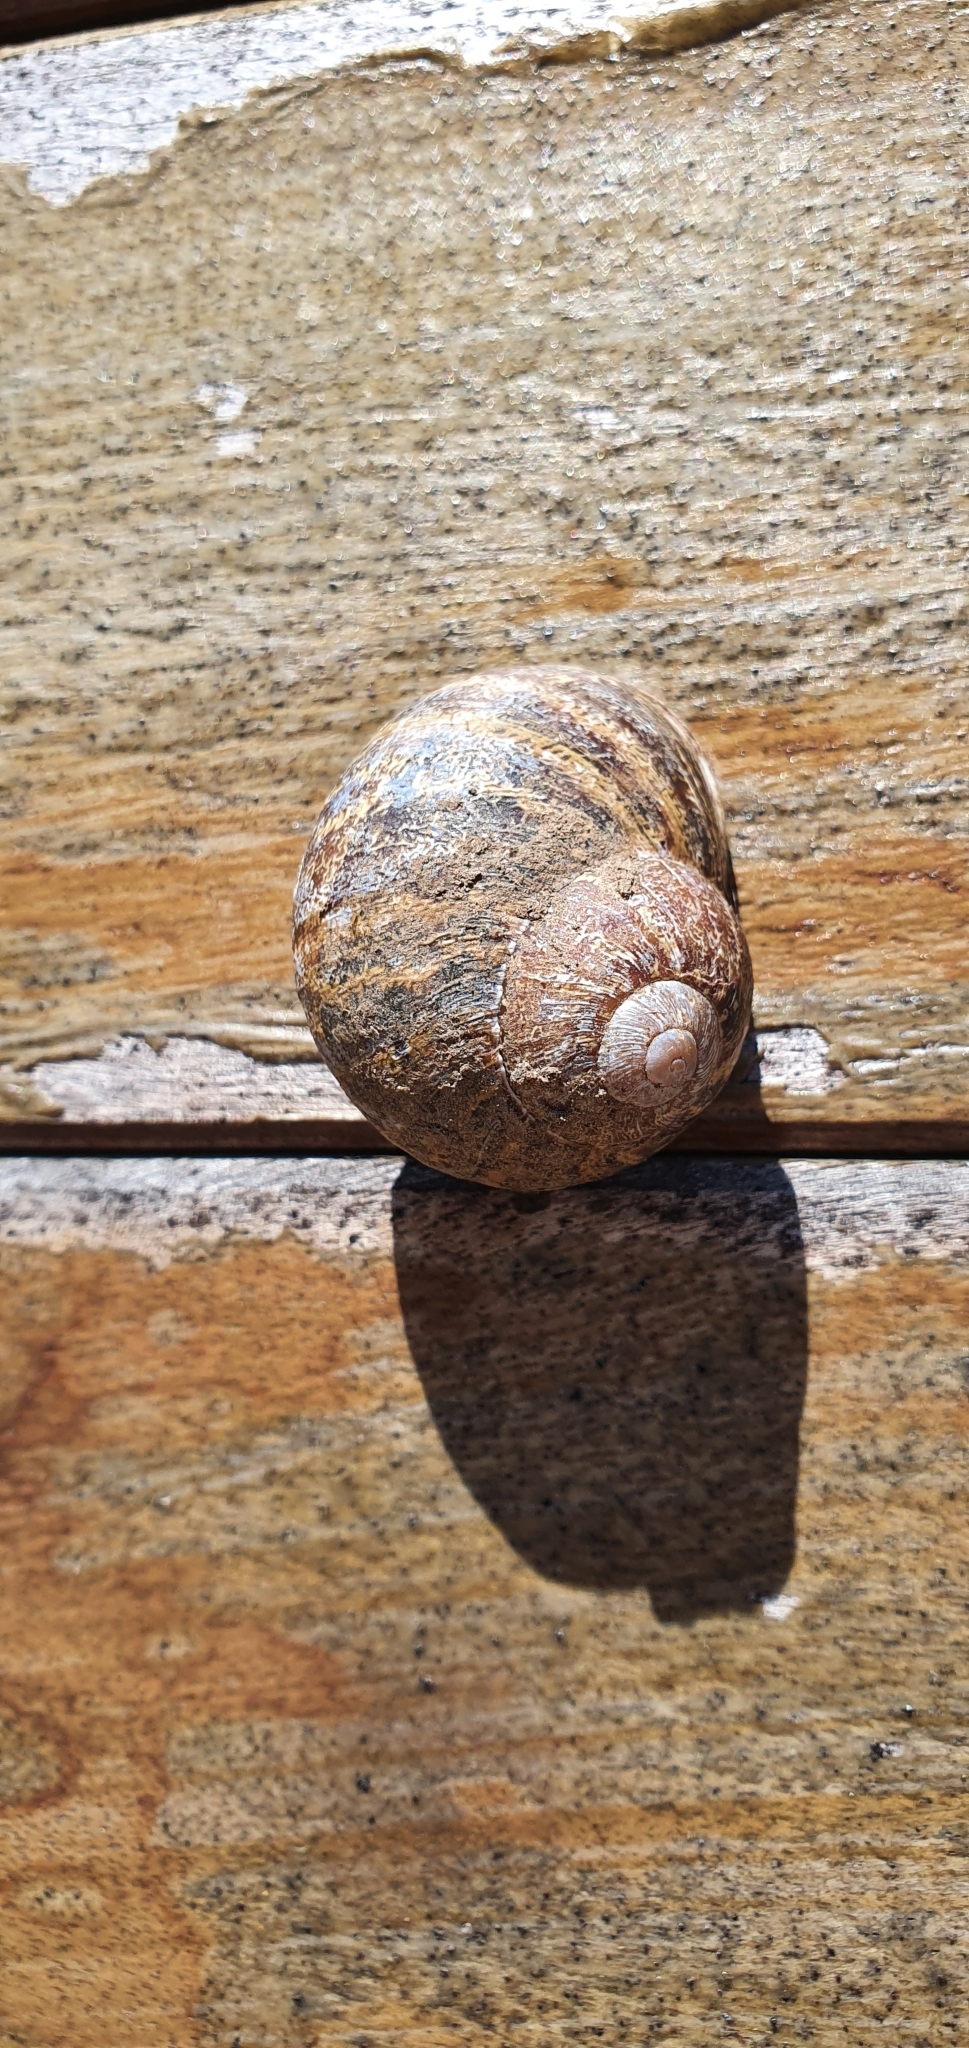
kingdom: Animalia
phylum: Mollusca
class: Gastropoda
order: Stylommatophora
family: Helicidae
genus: Cornu
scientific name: Cornu aspersum
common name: Brown garden snail
